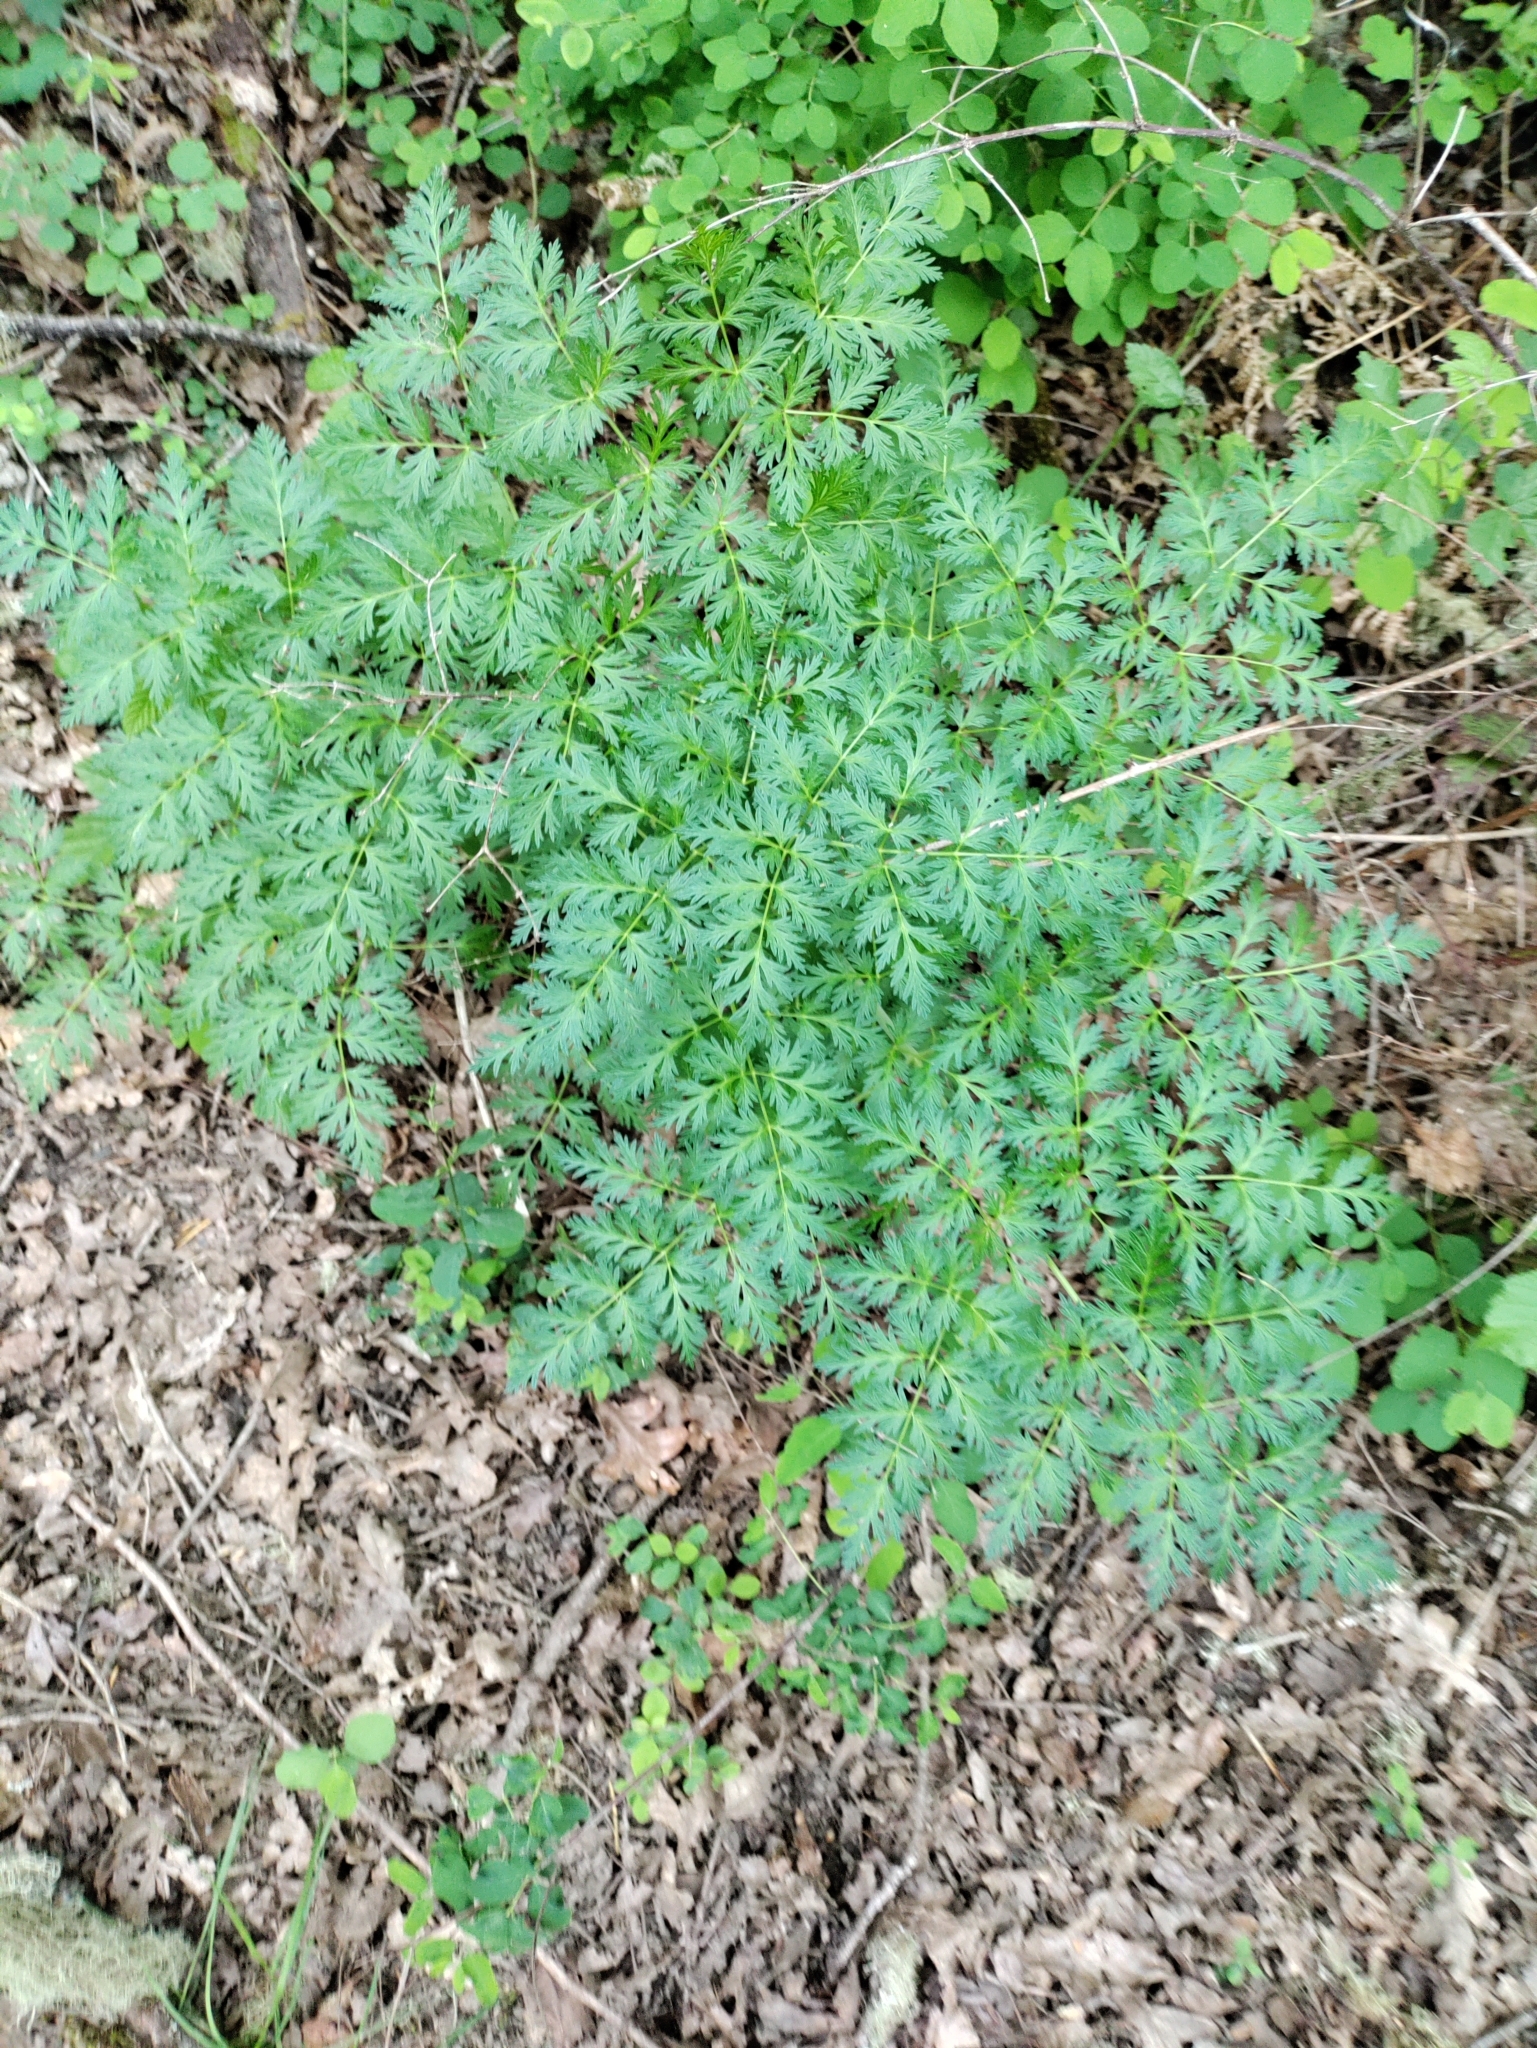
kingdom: Plantae
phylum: Tracheophyta
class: Magnoliopsida
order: Apiales
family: Apiaceae
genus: Lomatium
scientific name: Lomatium dissectum
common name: Lomatium
